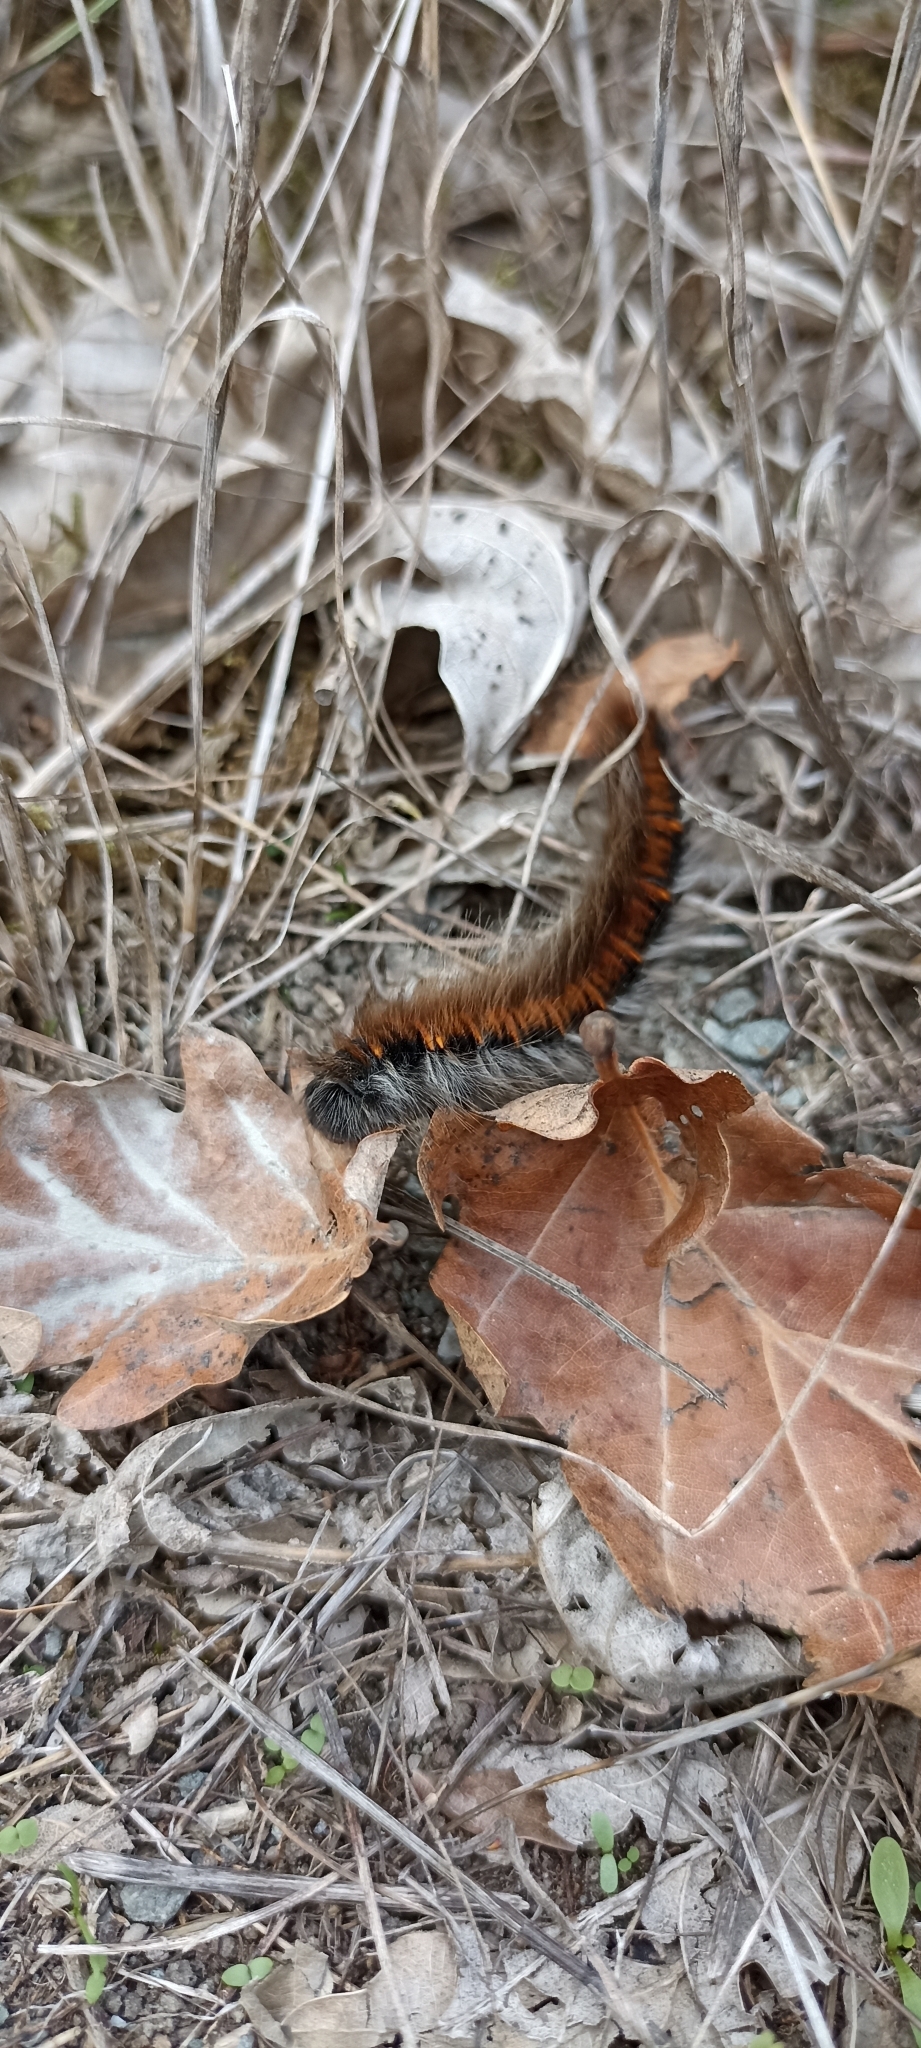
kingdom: Animalia
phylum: Arthropoda
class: Insecta
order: Lepidoptera
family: Lasiocampidae
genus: Macrothylacia
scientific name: Macrothylacia rubi
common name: Fox moth
